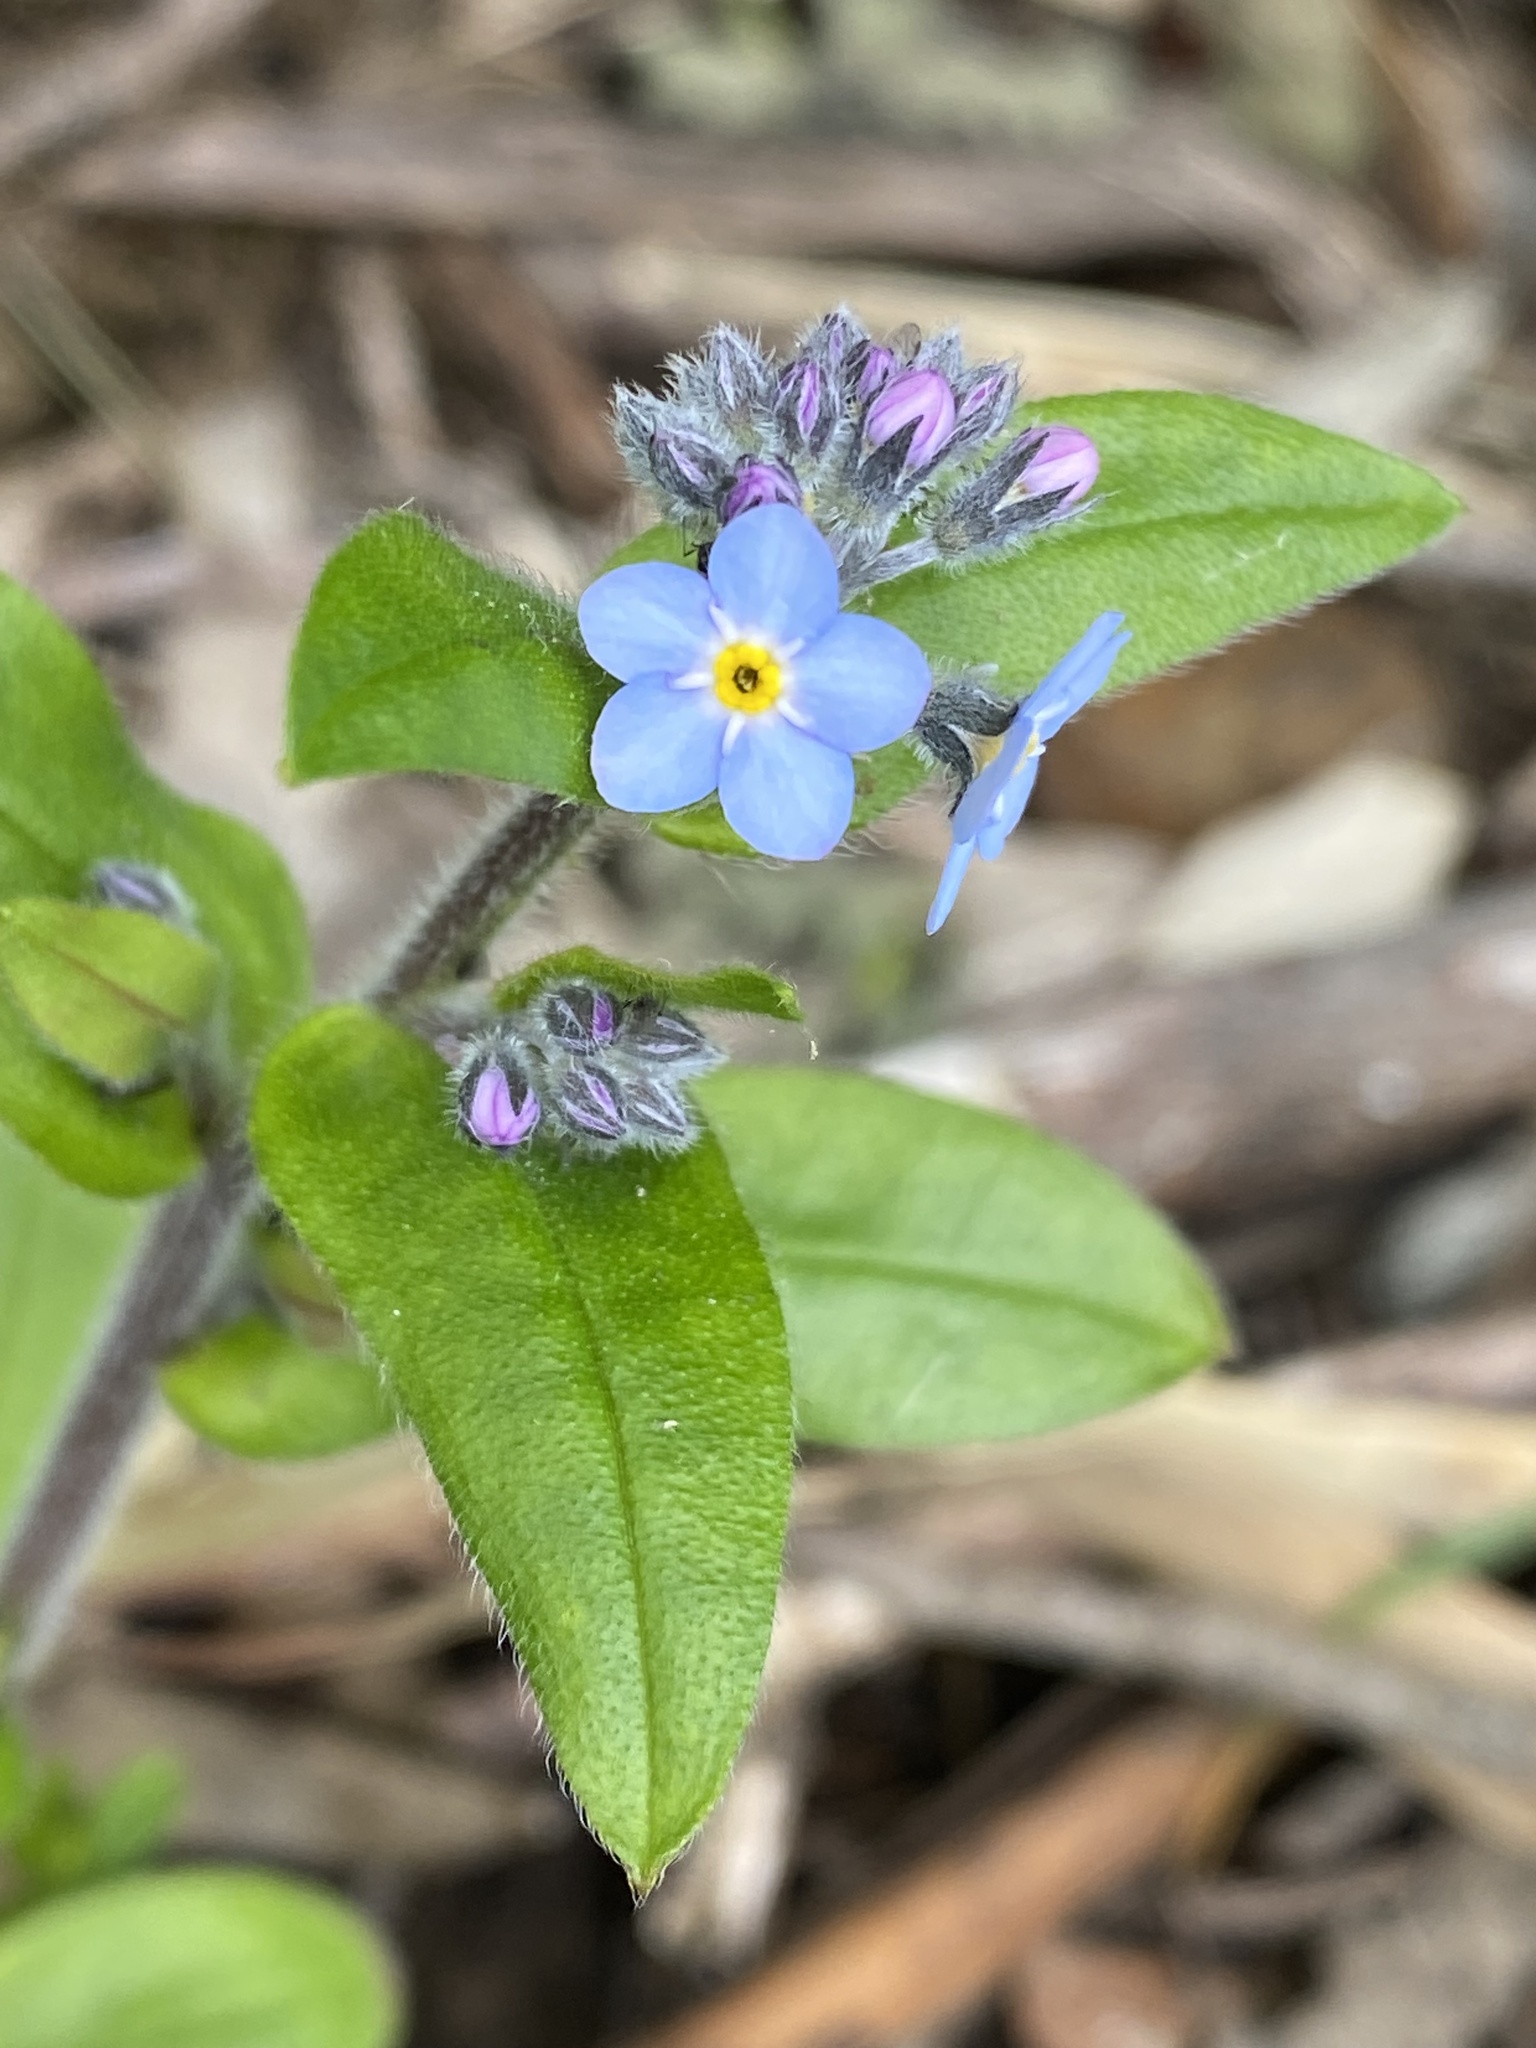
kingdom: Plantae
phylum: Tracheophyta
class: Magnoliopsida
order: Boraginales
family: Boraginaceae
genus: Myosotis
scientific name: Myosotis latifolia
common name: Broadleaf forget-me-not
